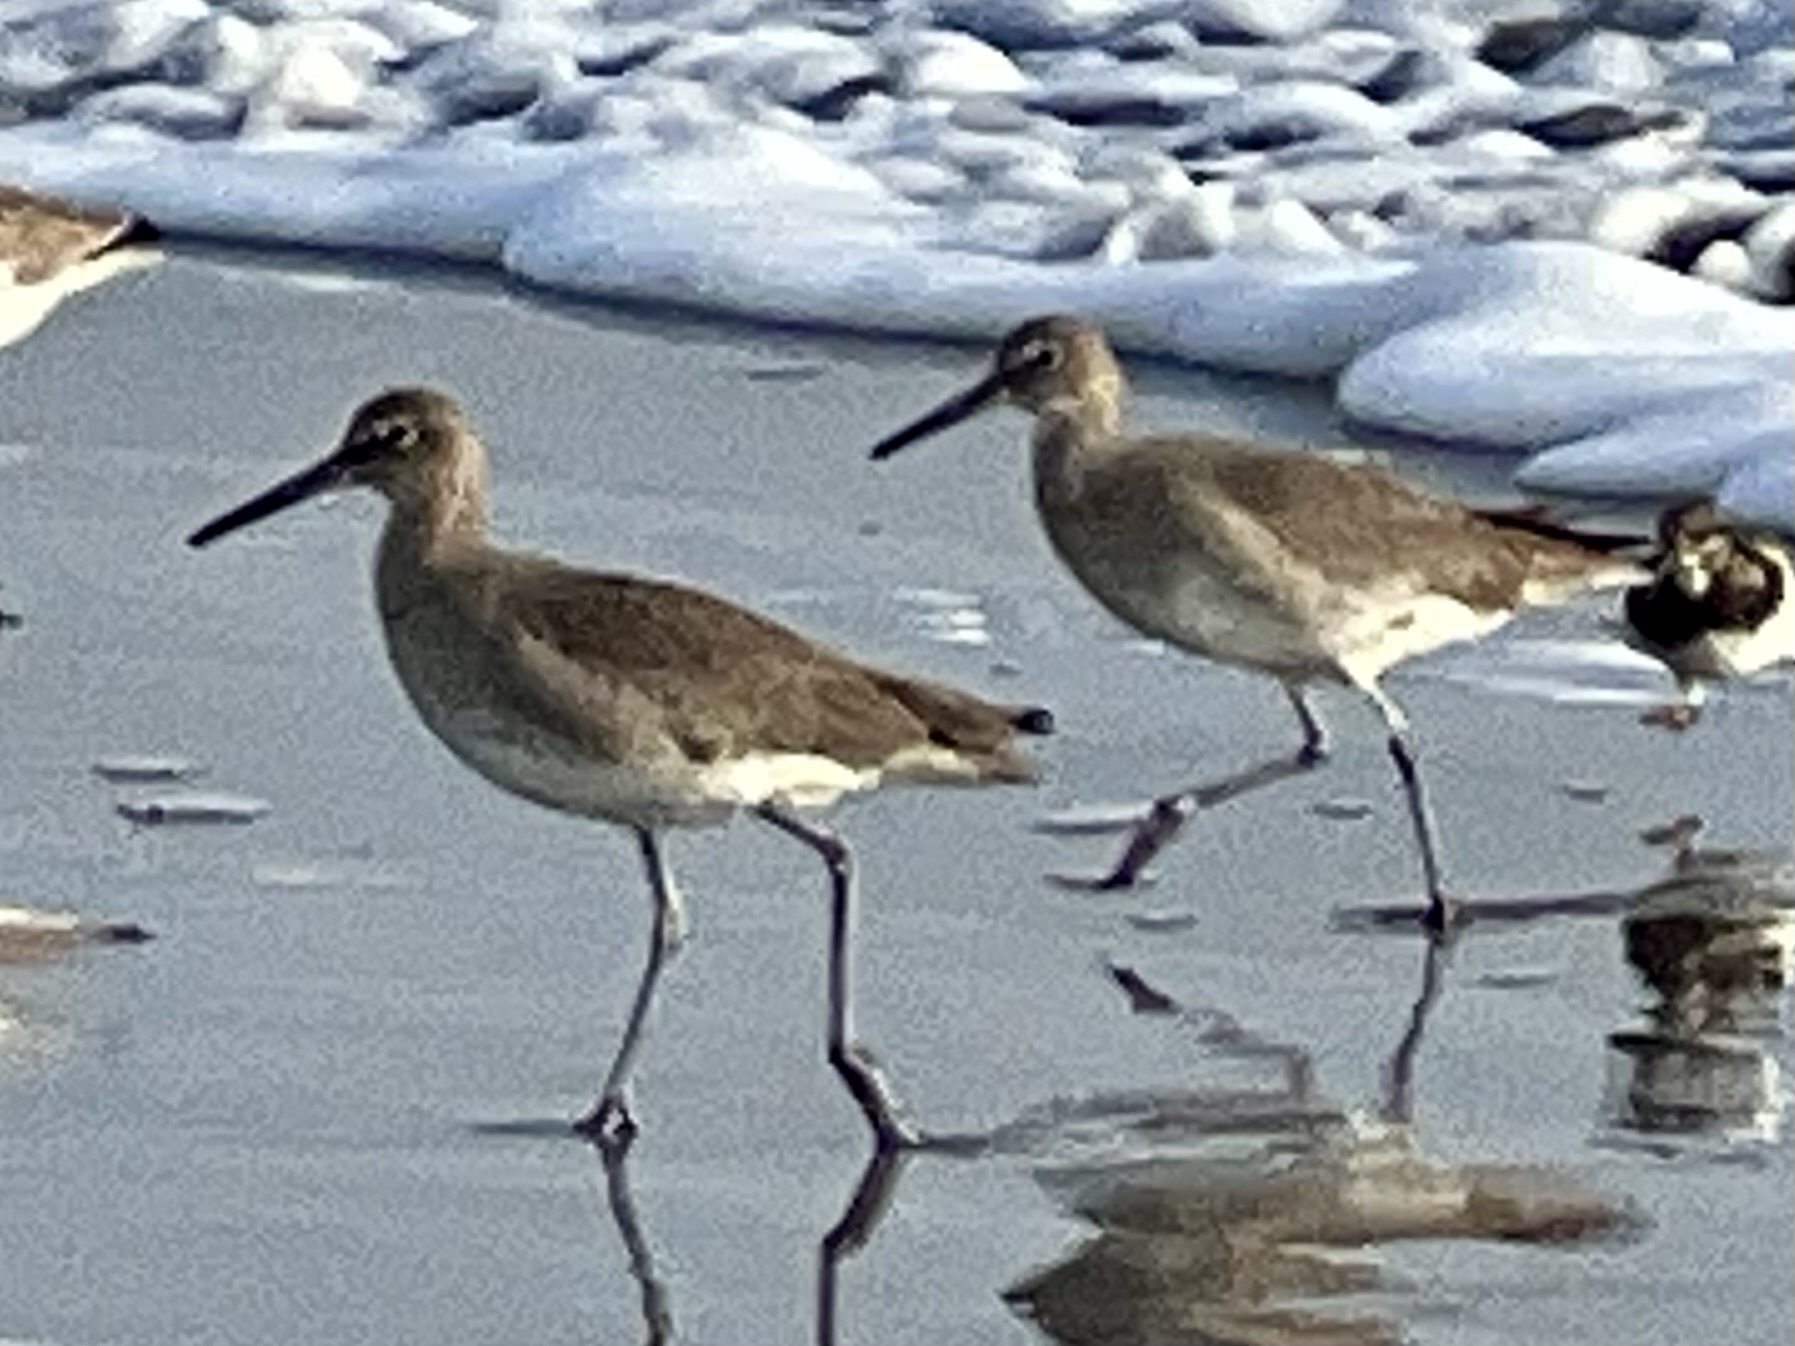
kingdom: Animalia
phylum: Chordata
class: Aves
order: Charadriiformes
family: Scolopacidae
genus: Tringa
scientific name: Tringa semipalmata
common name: Willet
